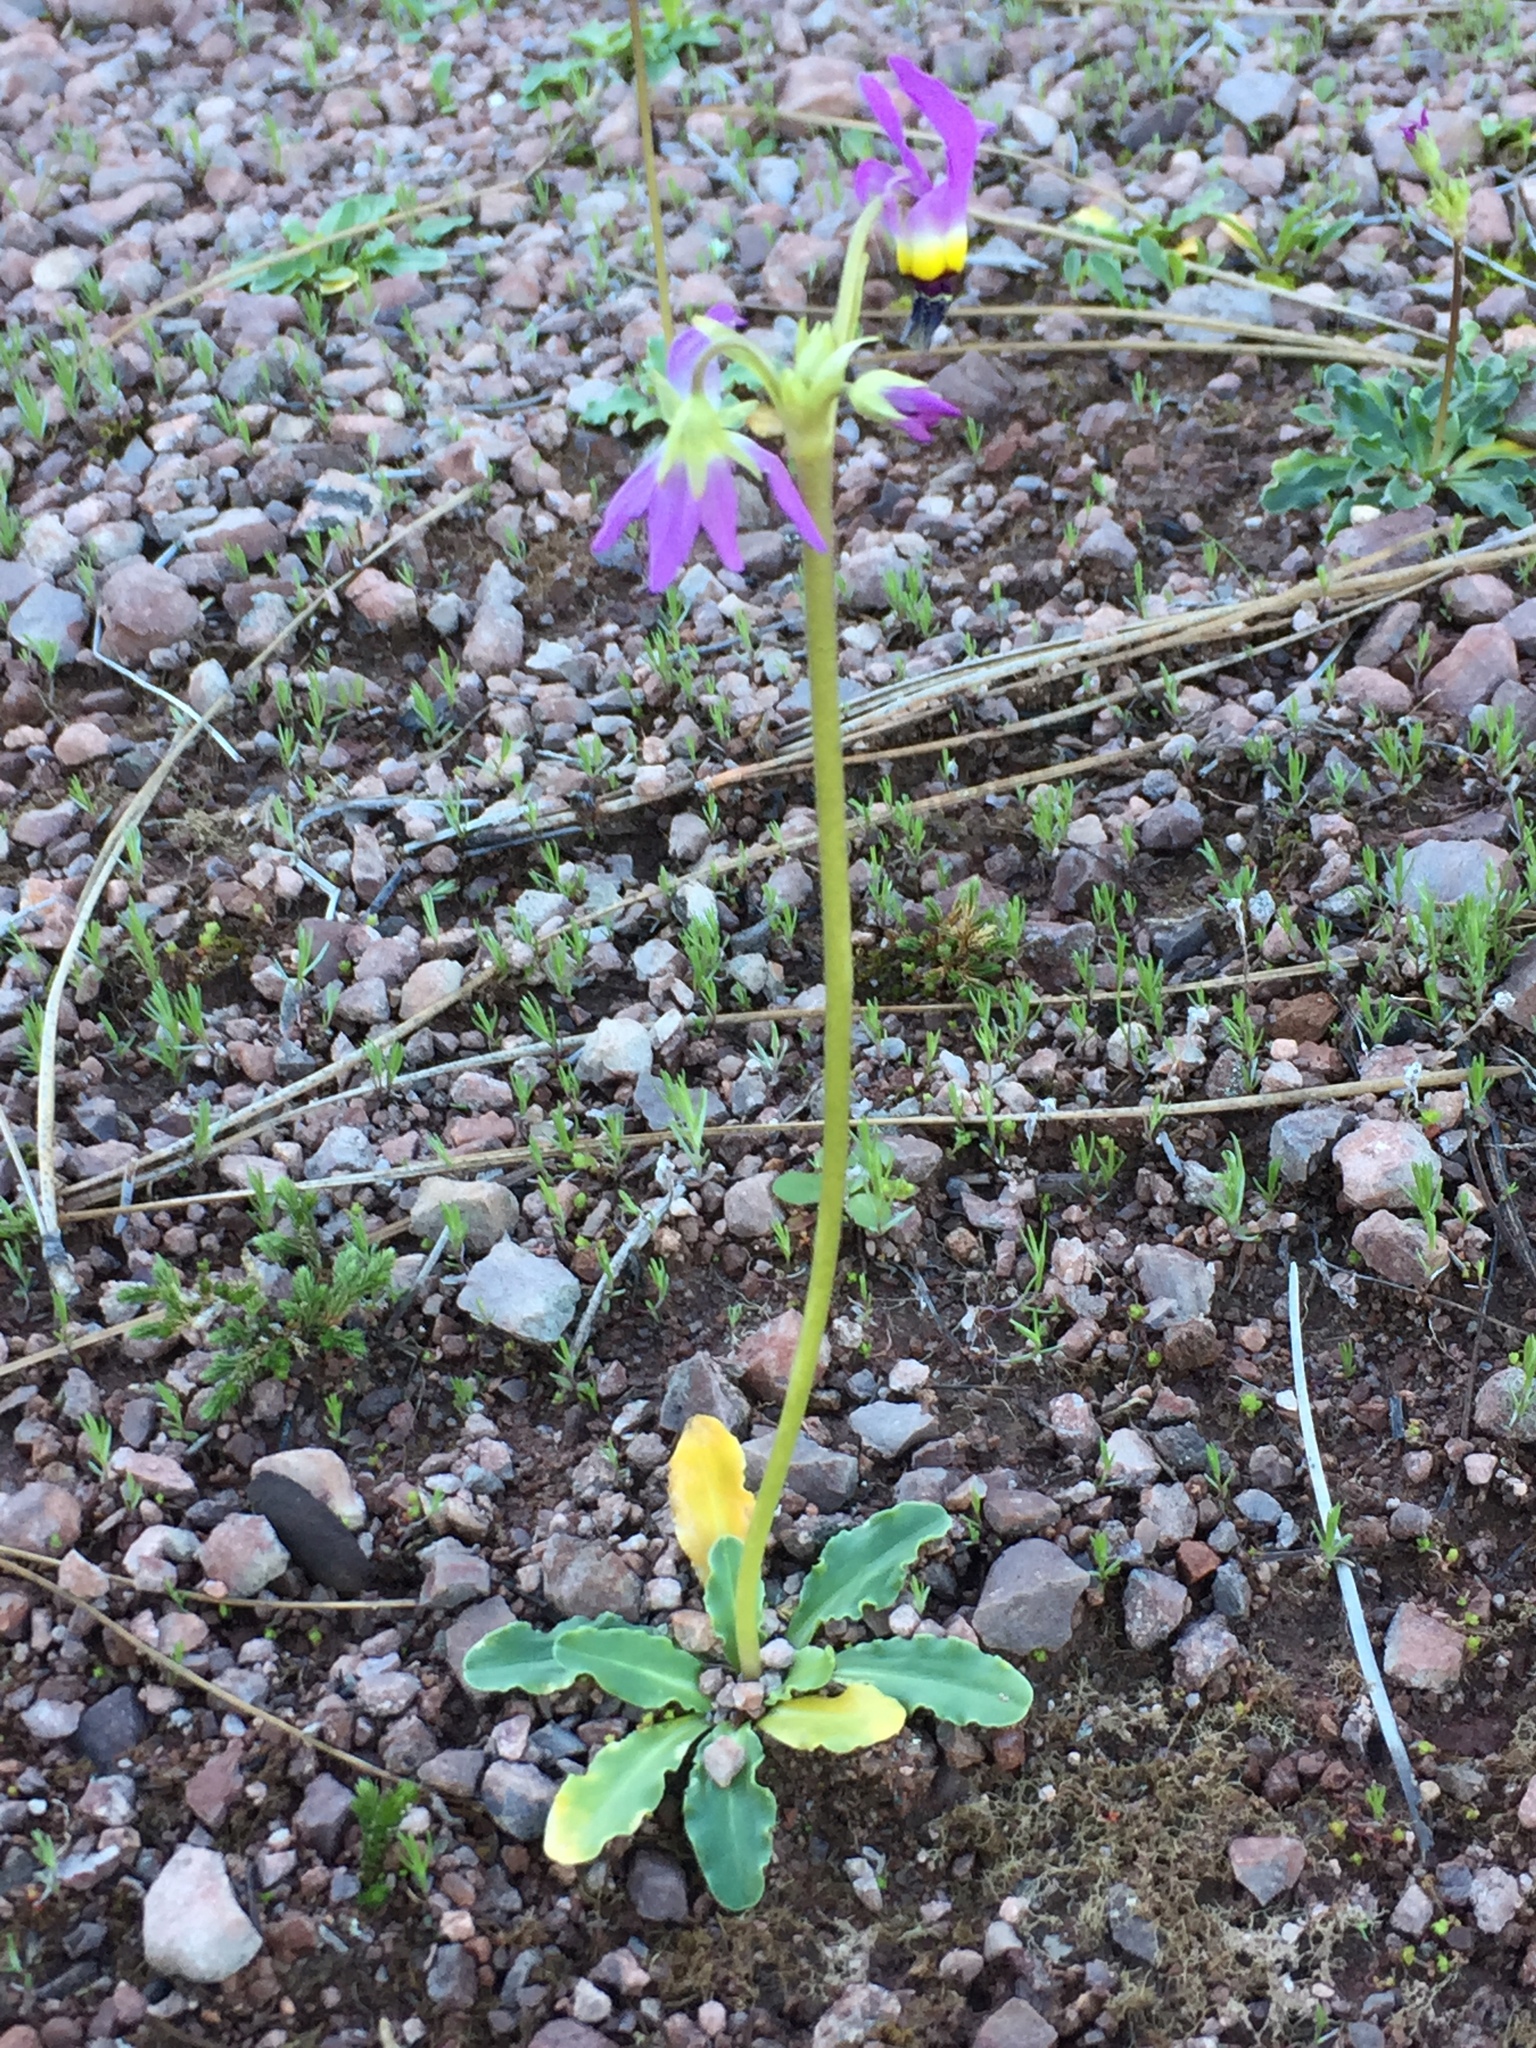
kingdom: Plantae
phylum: Tracheophyta
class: Magnoliopsida
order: Ericales
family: Primulaceae
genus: Dodecatheon
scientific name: Dodecatheon clevelandii
